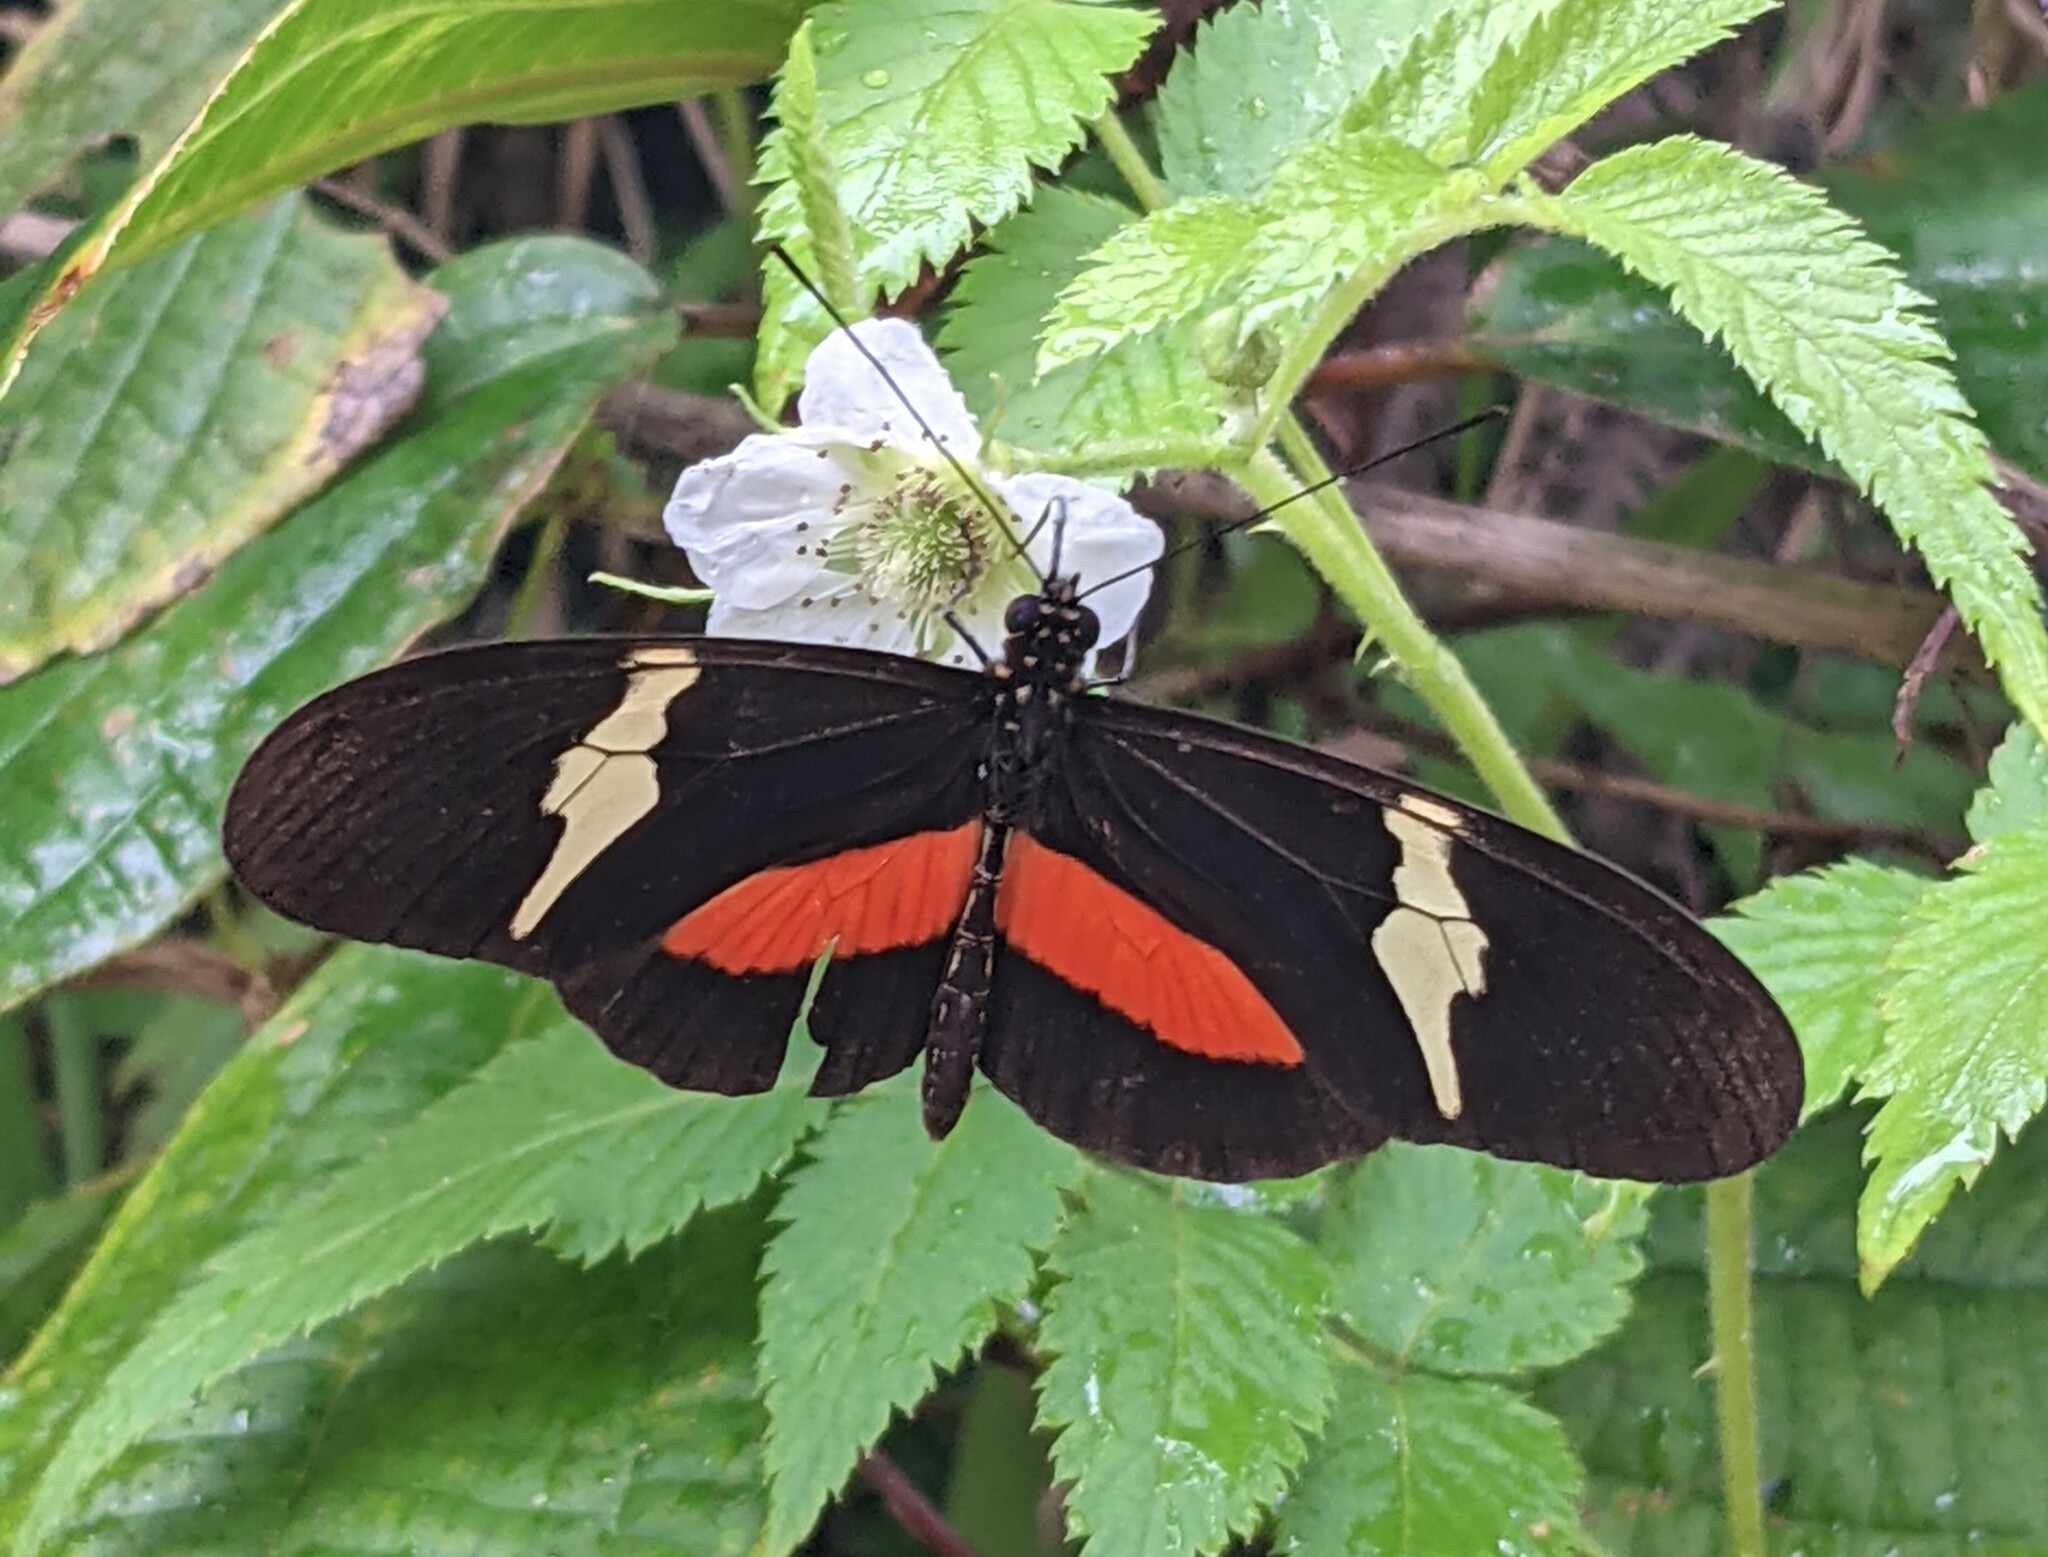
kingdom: Animalia
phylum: Arthropoda
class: Insecta
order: Lepidoptera
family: Nymphalidae
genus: Heliconius
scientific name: Heliconius clysonymus
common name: Clysonymus longwing
